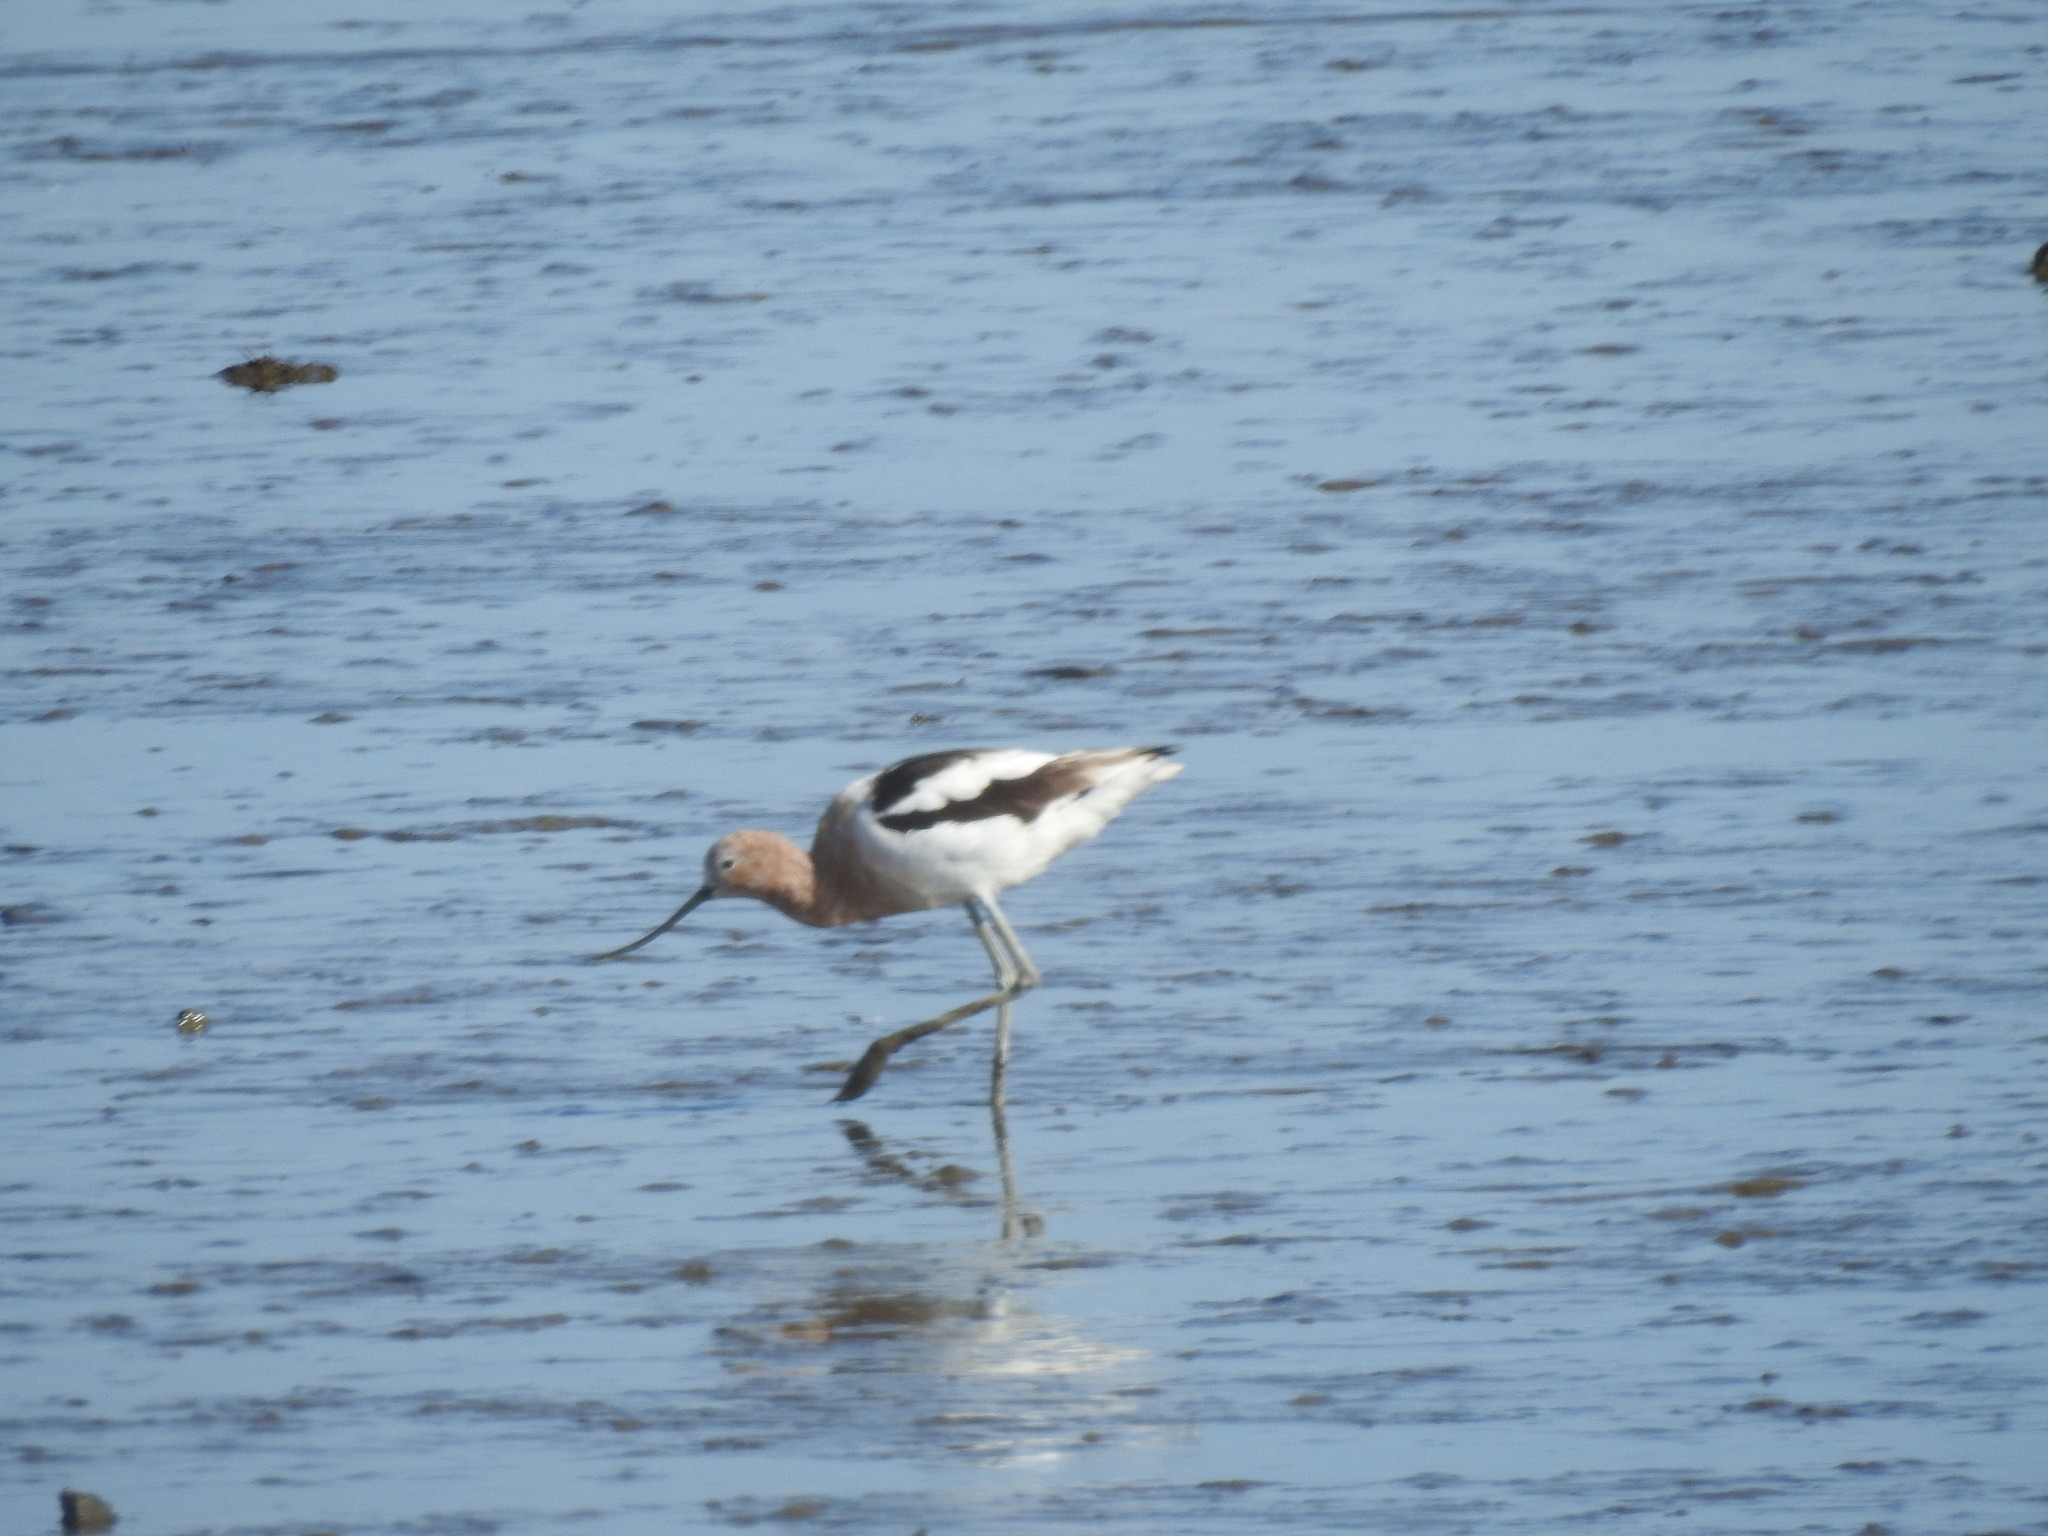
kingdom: Animalia
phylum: Chordata
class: Aves
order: Charadriiformes
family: Recurvirostridae
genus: Recurvirostra
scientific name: Recurvirostra americana
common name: American avocet
